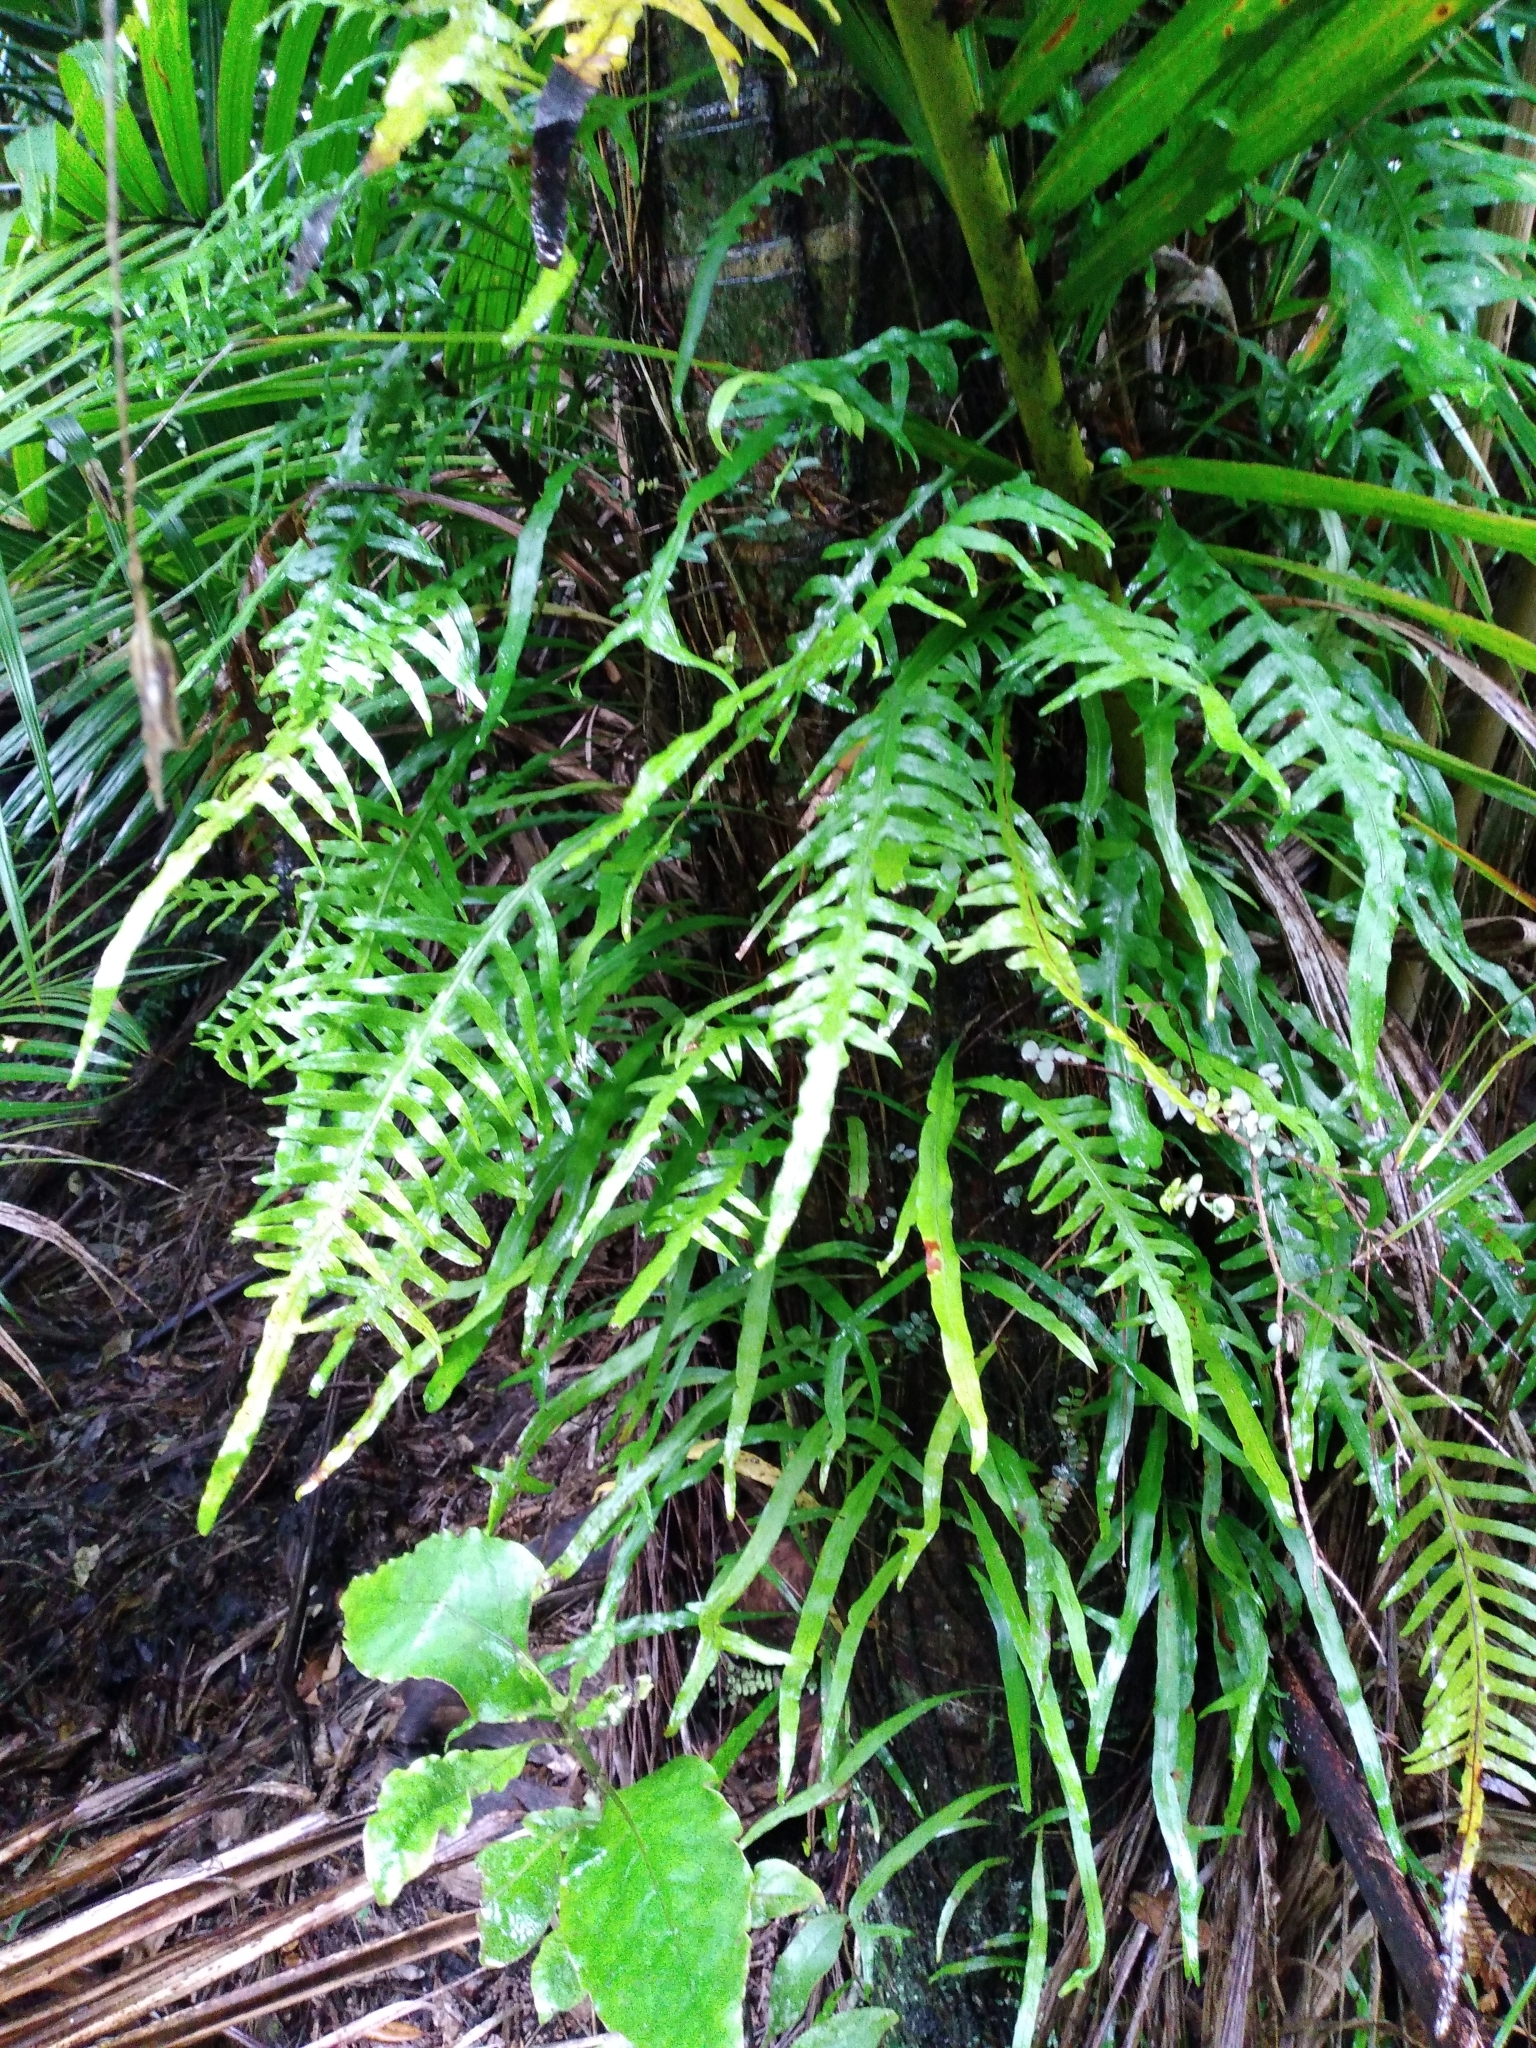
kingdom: Plantae
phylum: Tracheophyta
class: Polypodiopsida
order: Polypodiales
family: Polypodiaceae
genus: Lecanopteris
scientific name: Lecanopteris scandens
